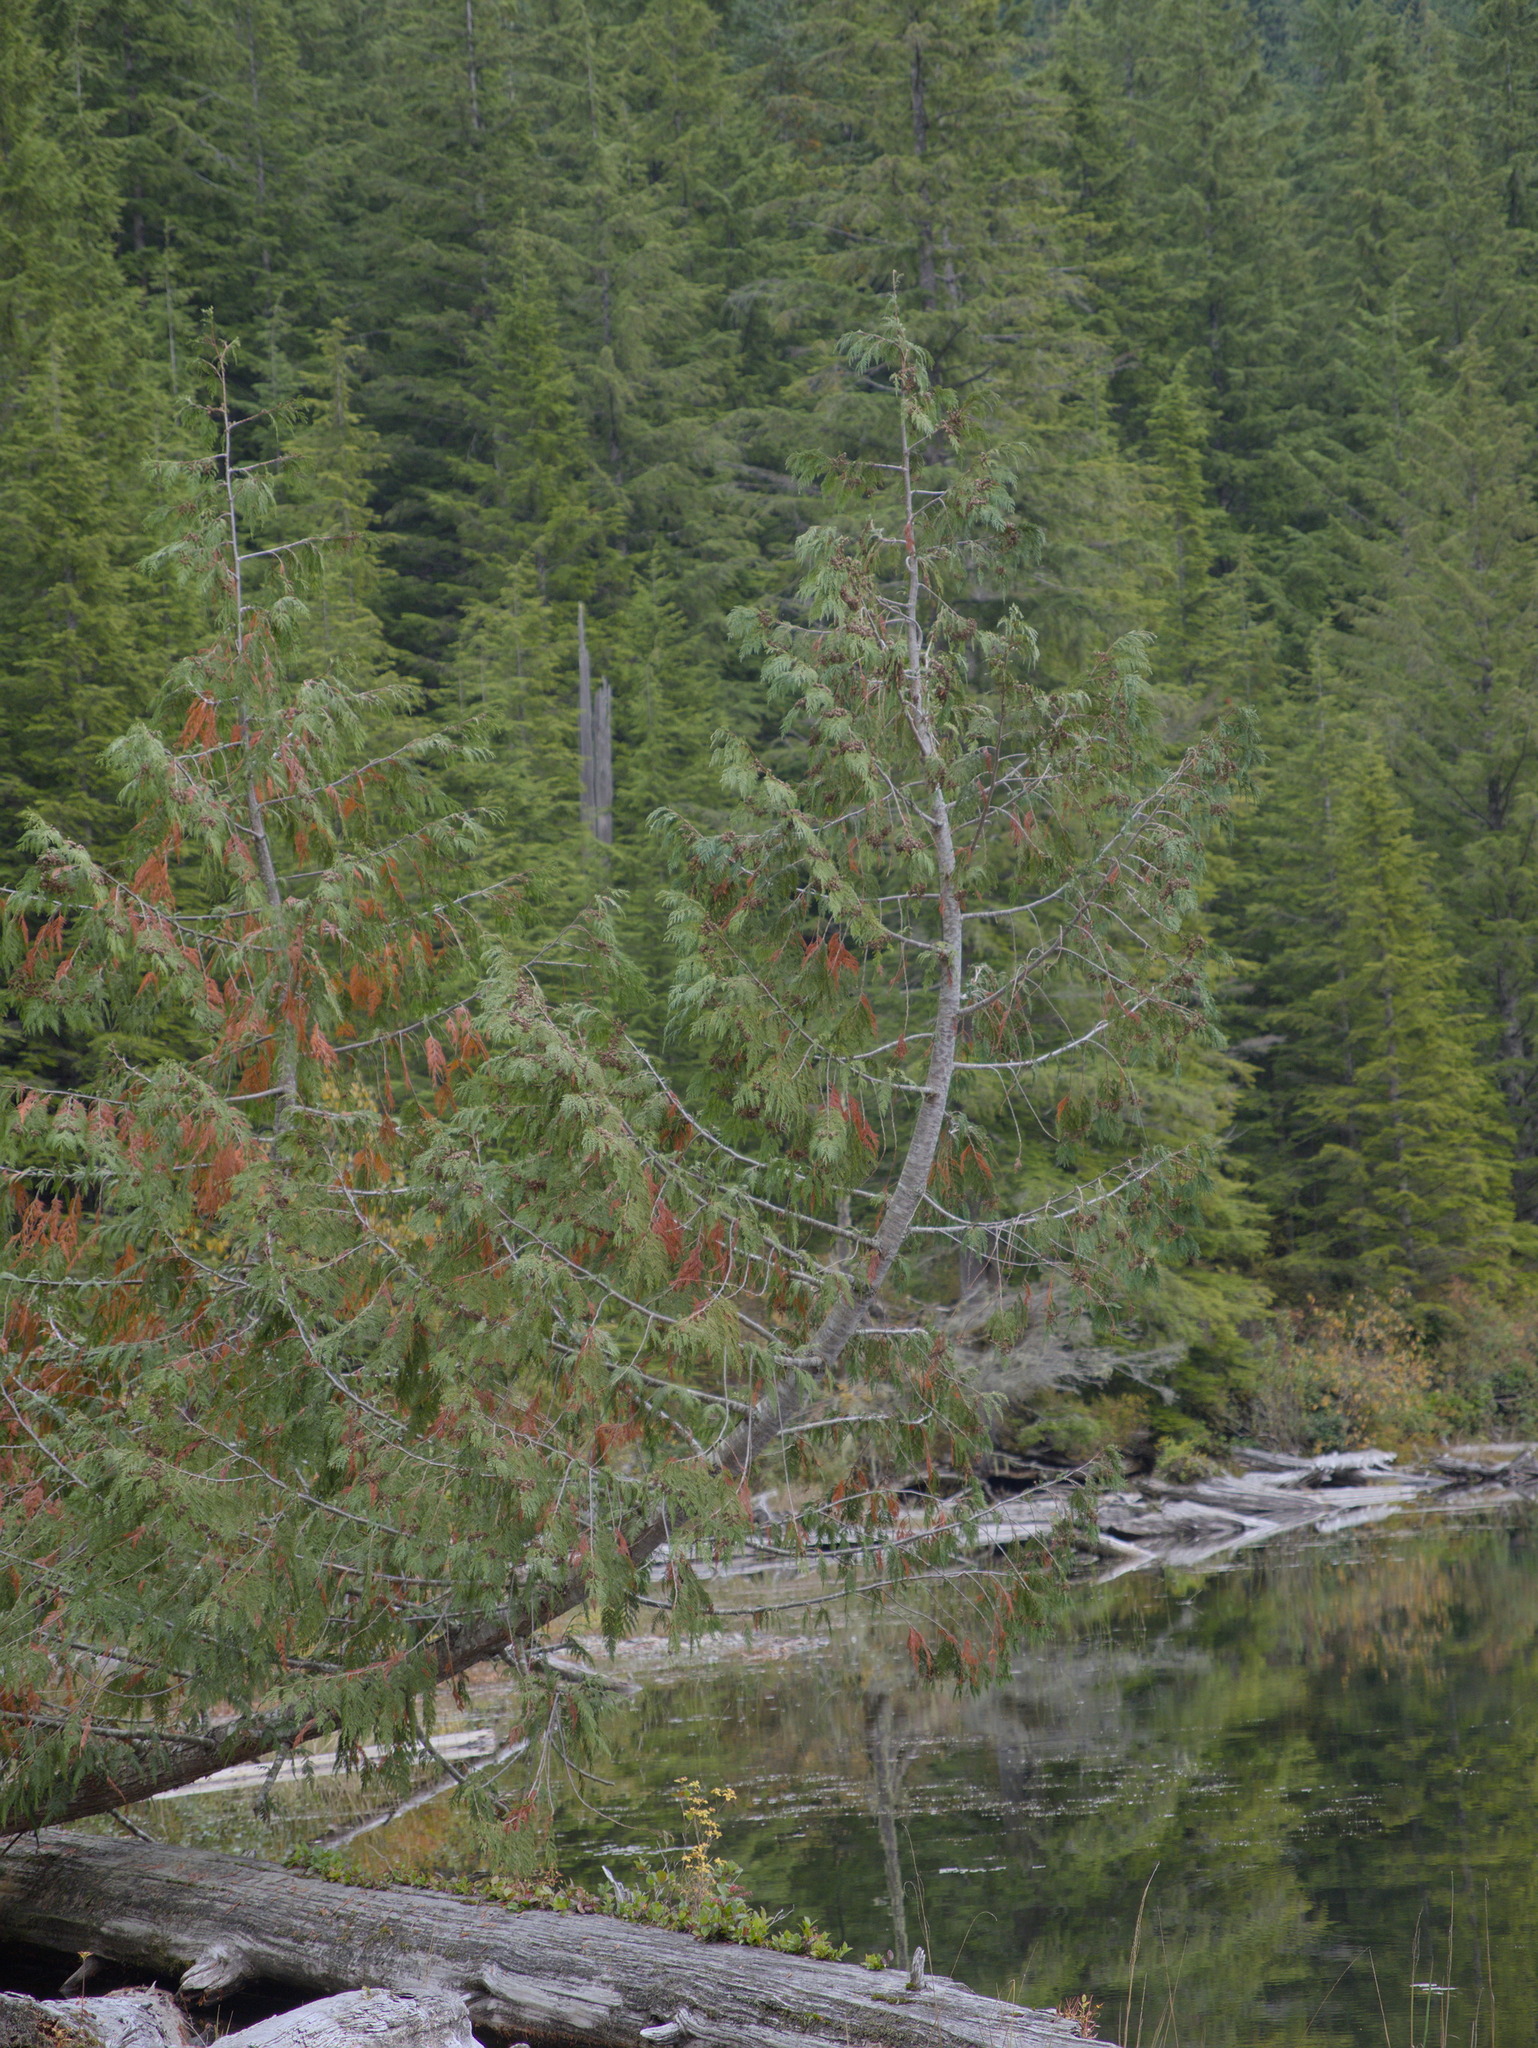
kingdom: Plantae
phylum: Tracheophyta
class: Pinopsida
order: Pinales
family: Cupressaceae
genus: Thuja
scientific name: Thuja plicata
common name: Western red-cedar
